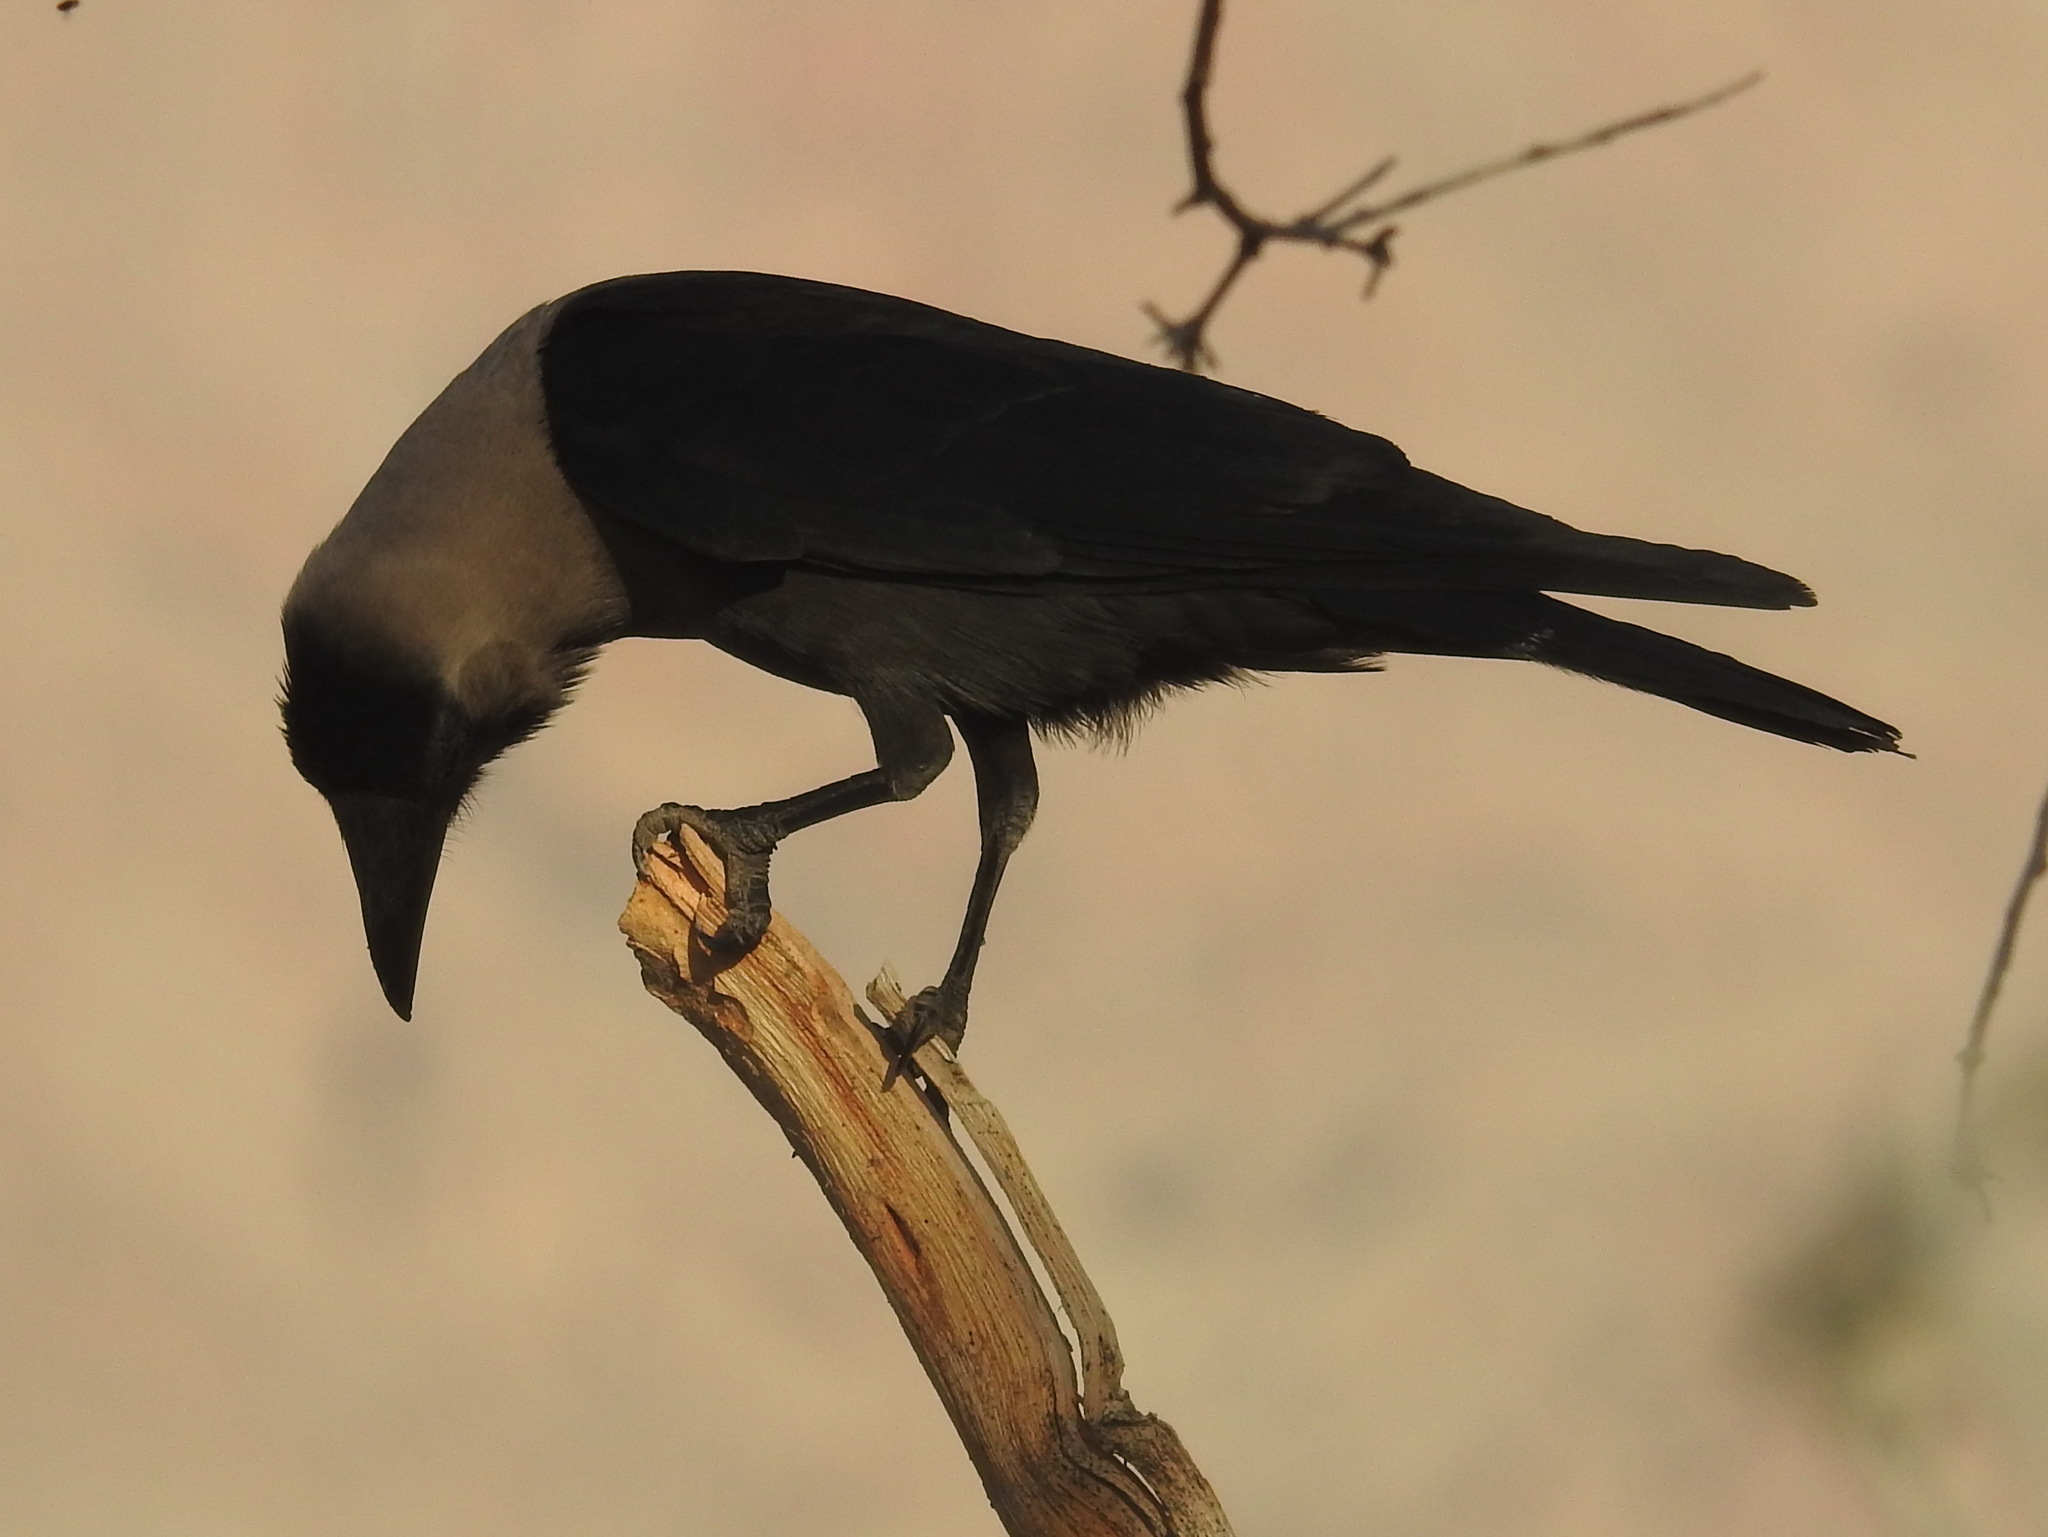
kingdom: Animalia
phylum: Chordata
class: Aves
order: Passeriformes
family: Corvidae
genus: Corvus
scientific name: Corvus splendens
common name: House crow
